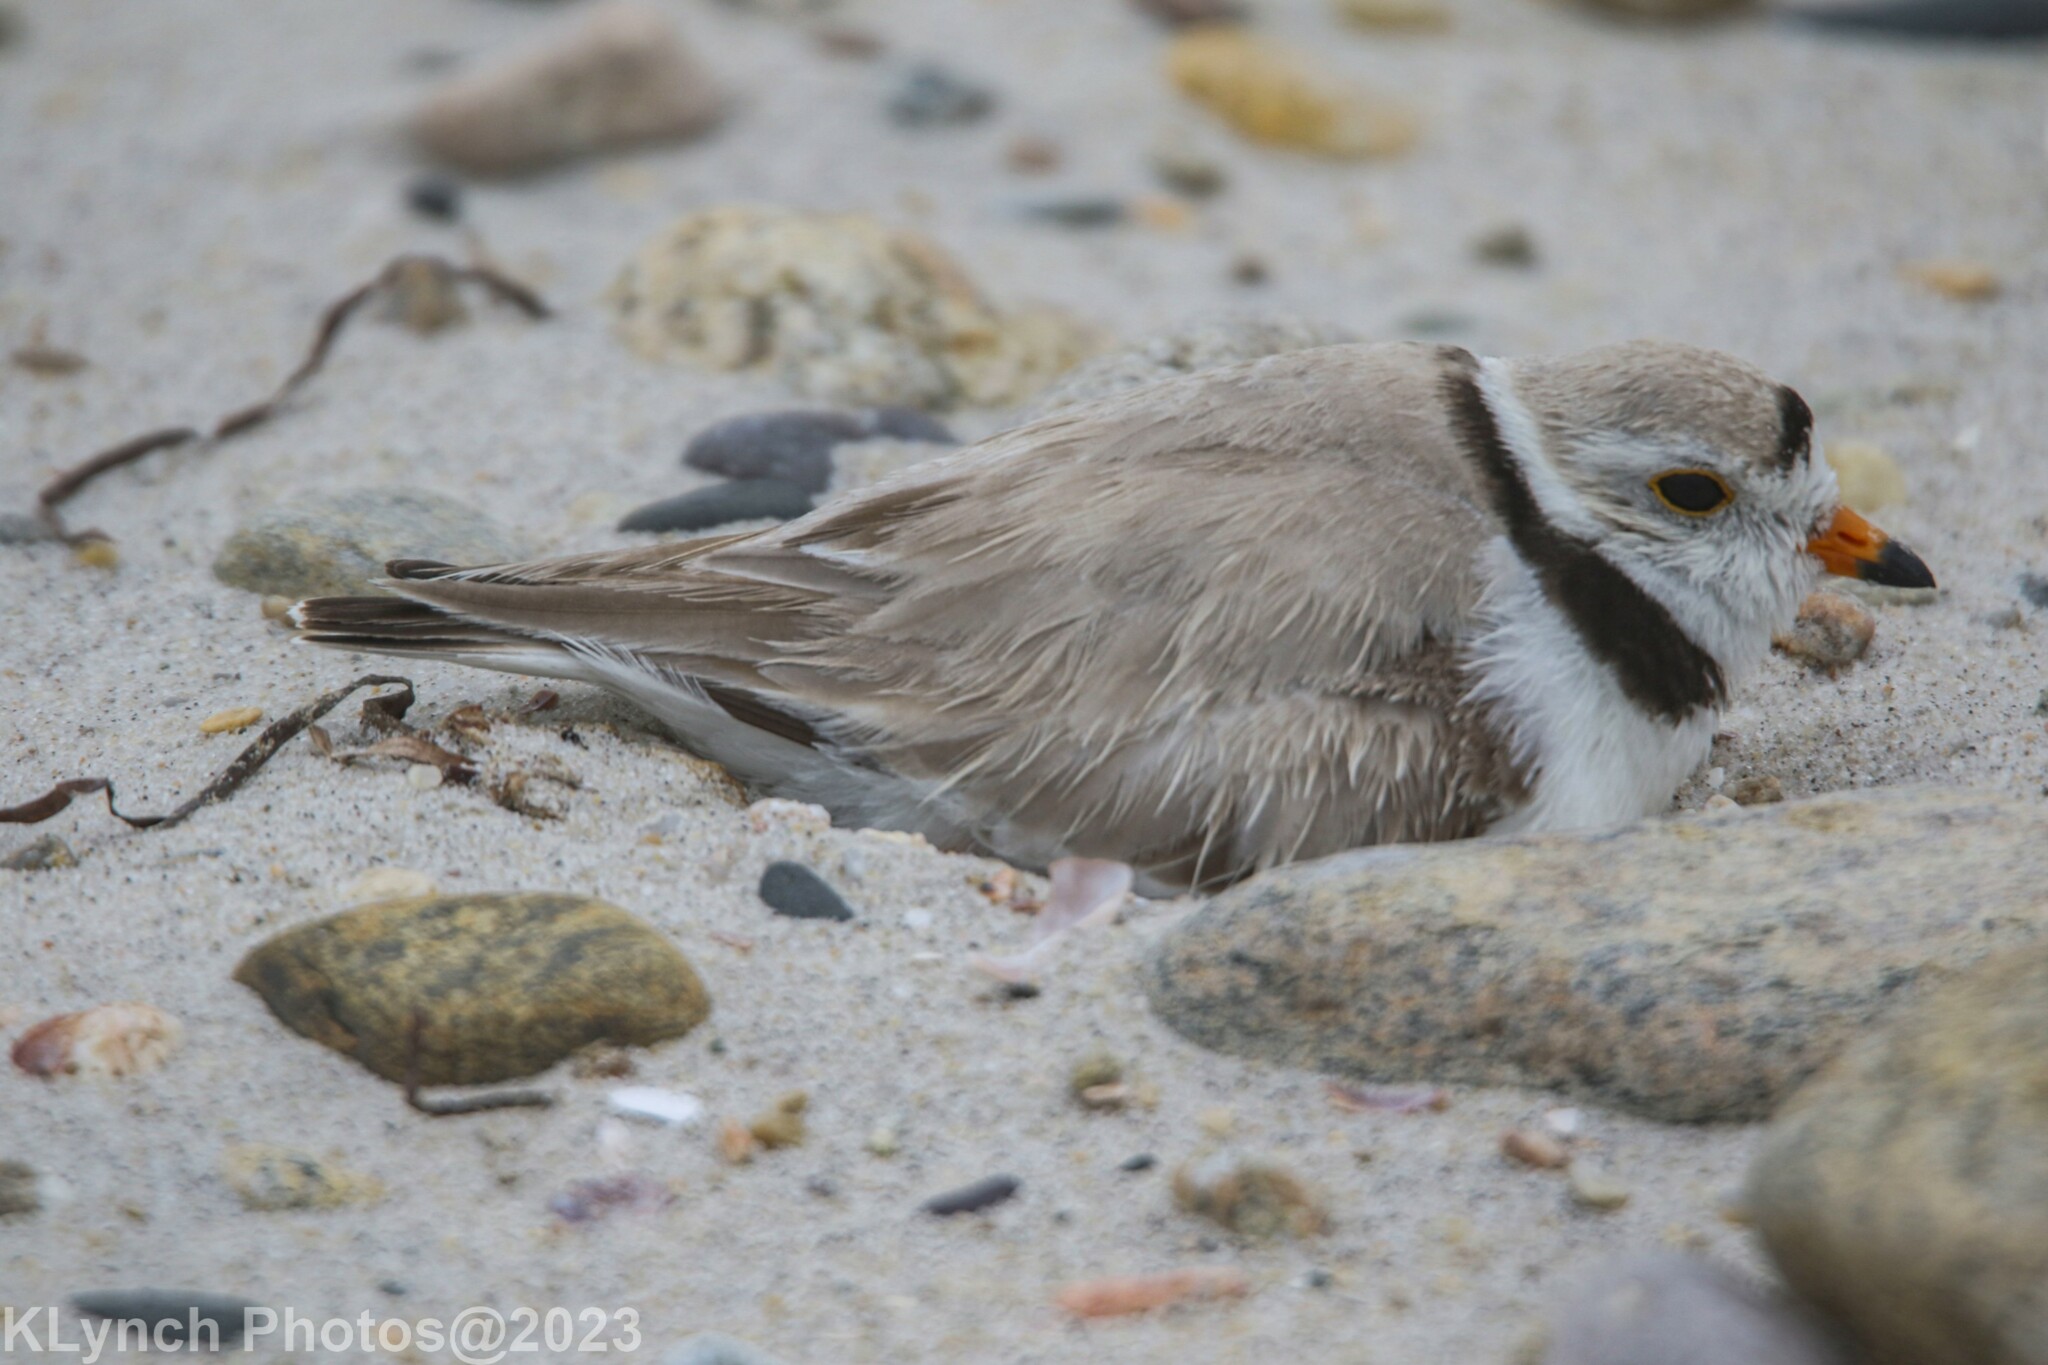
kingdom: Animalia
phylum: Chordata
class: Aves
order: Charadriiformes
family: Charadriidae
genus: Charadrius
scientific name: Charadrius melodus
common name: Piping plover
